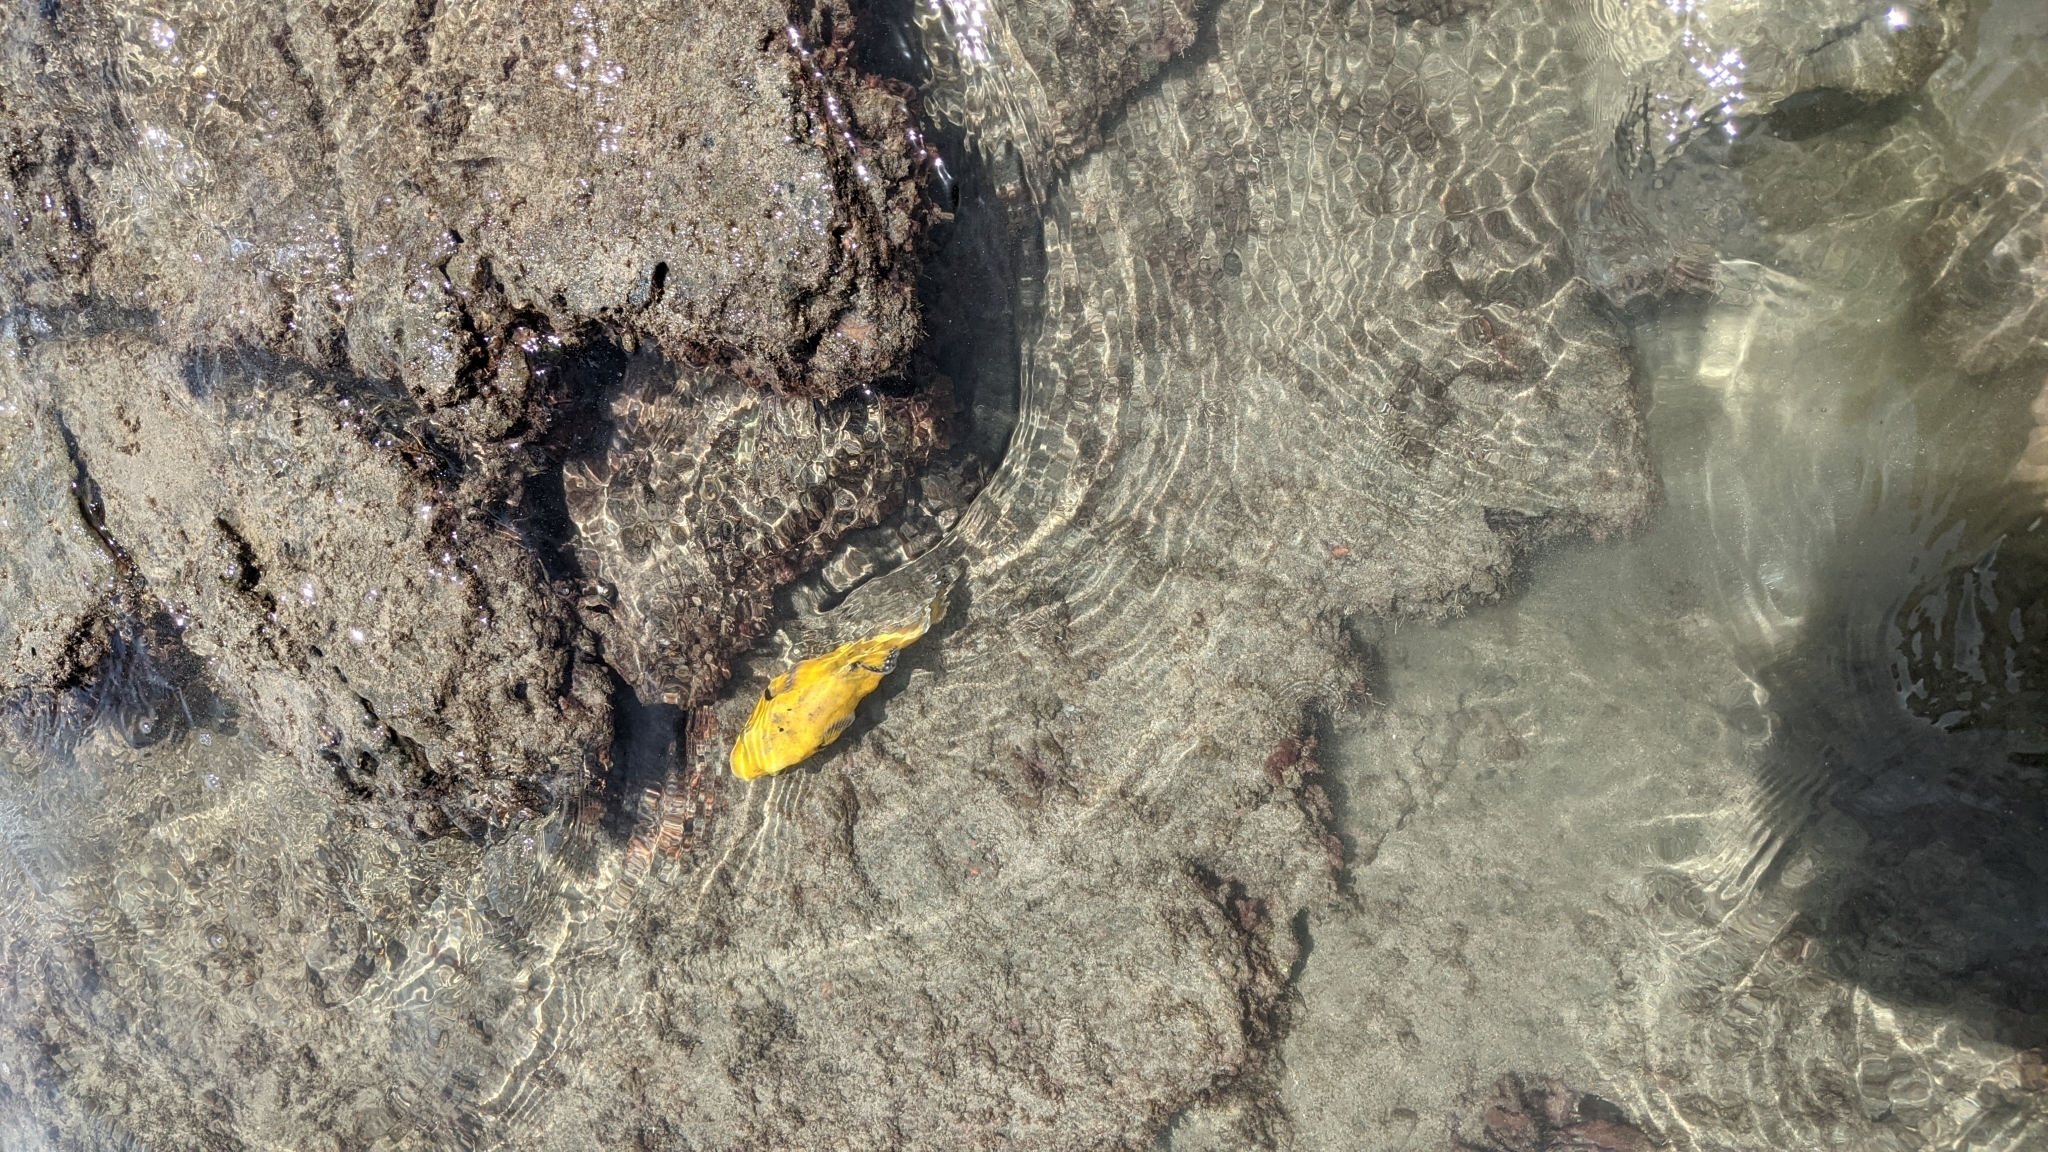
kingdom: Animalia
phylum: Chordata
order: Tetraodontiformes
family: Tetraodontidae
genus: Arothron
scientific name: Arothron meleagris
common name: Guinea-fowl pufferfish
